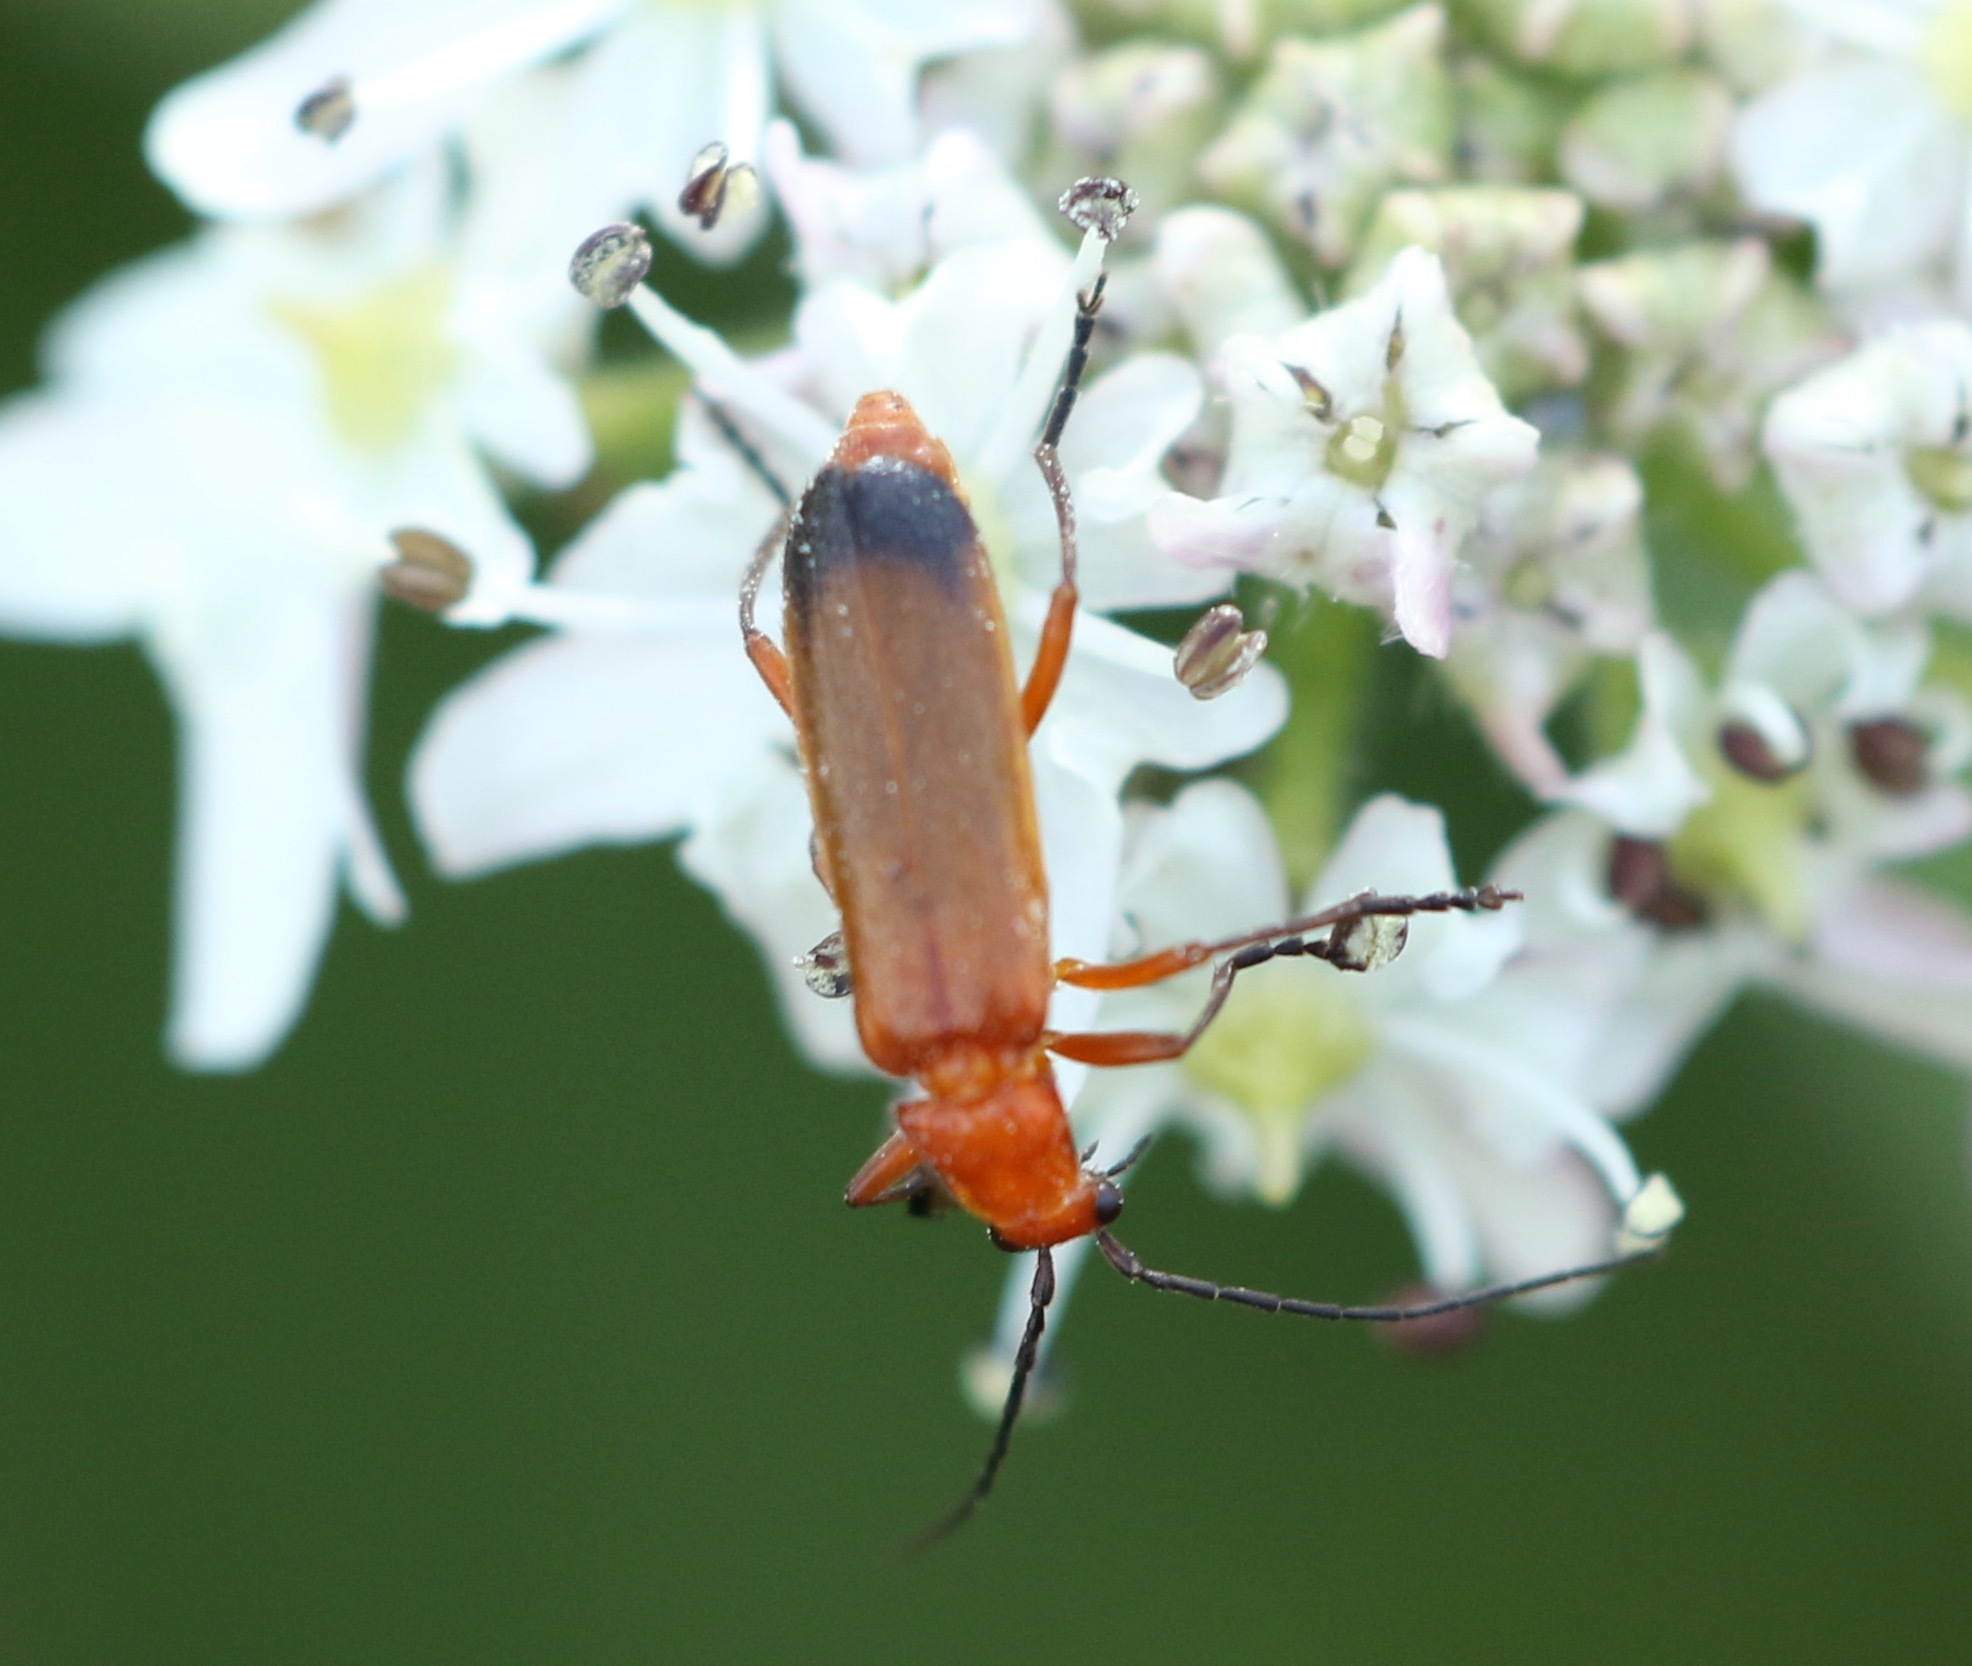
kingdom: Animalia
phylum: Arthropoda
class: Insecta
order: Coleoptera
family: Cantharidae
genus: Rhagonycha
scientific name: Rhagonycha fulva
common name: Common red soldier beetle
